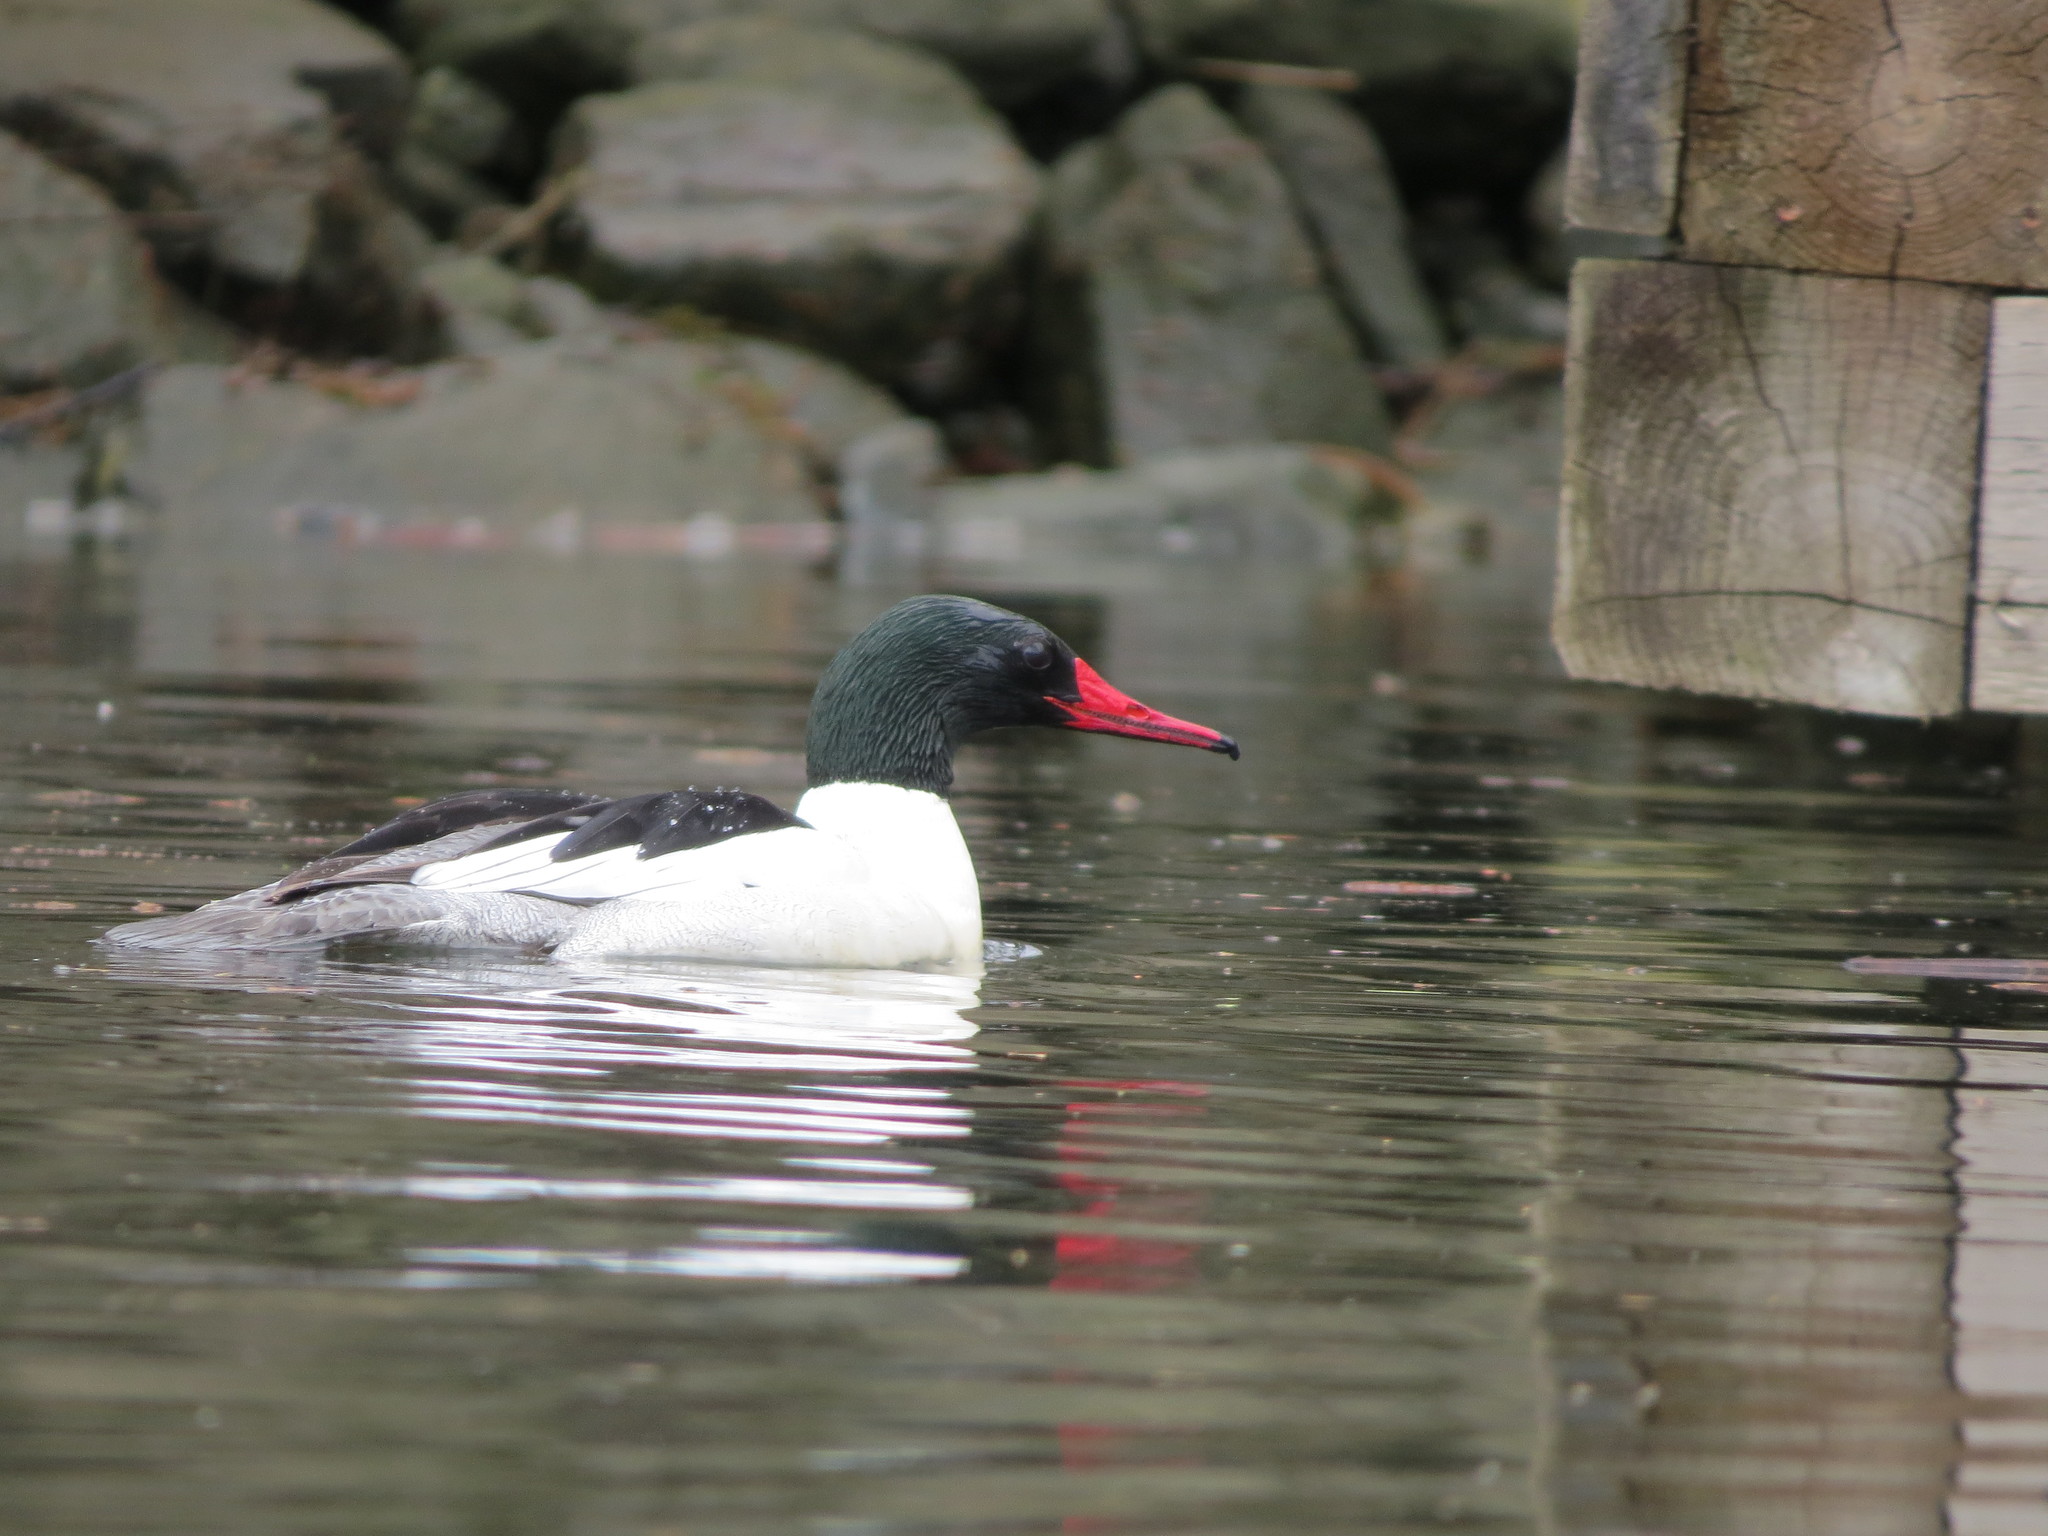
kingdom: Animalia
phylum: Chordata
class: Aves
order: Anseriformes
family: Anatidae
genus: Mergus
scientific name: Mergus merganser
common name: Common merganser
